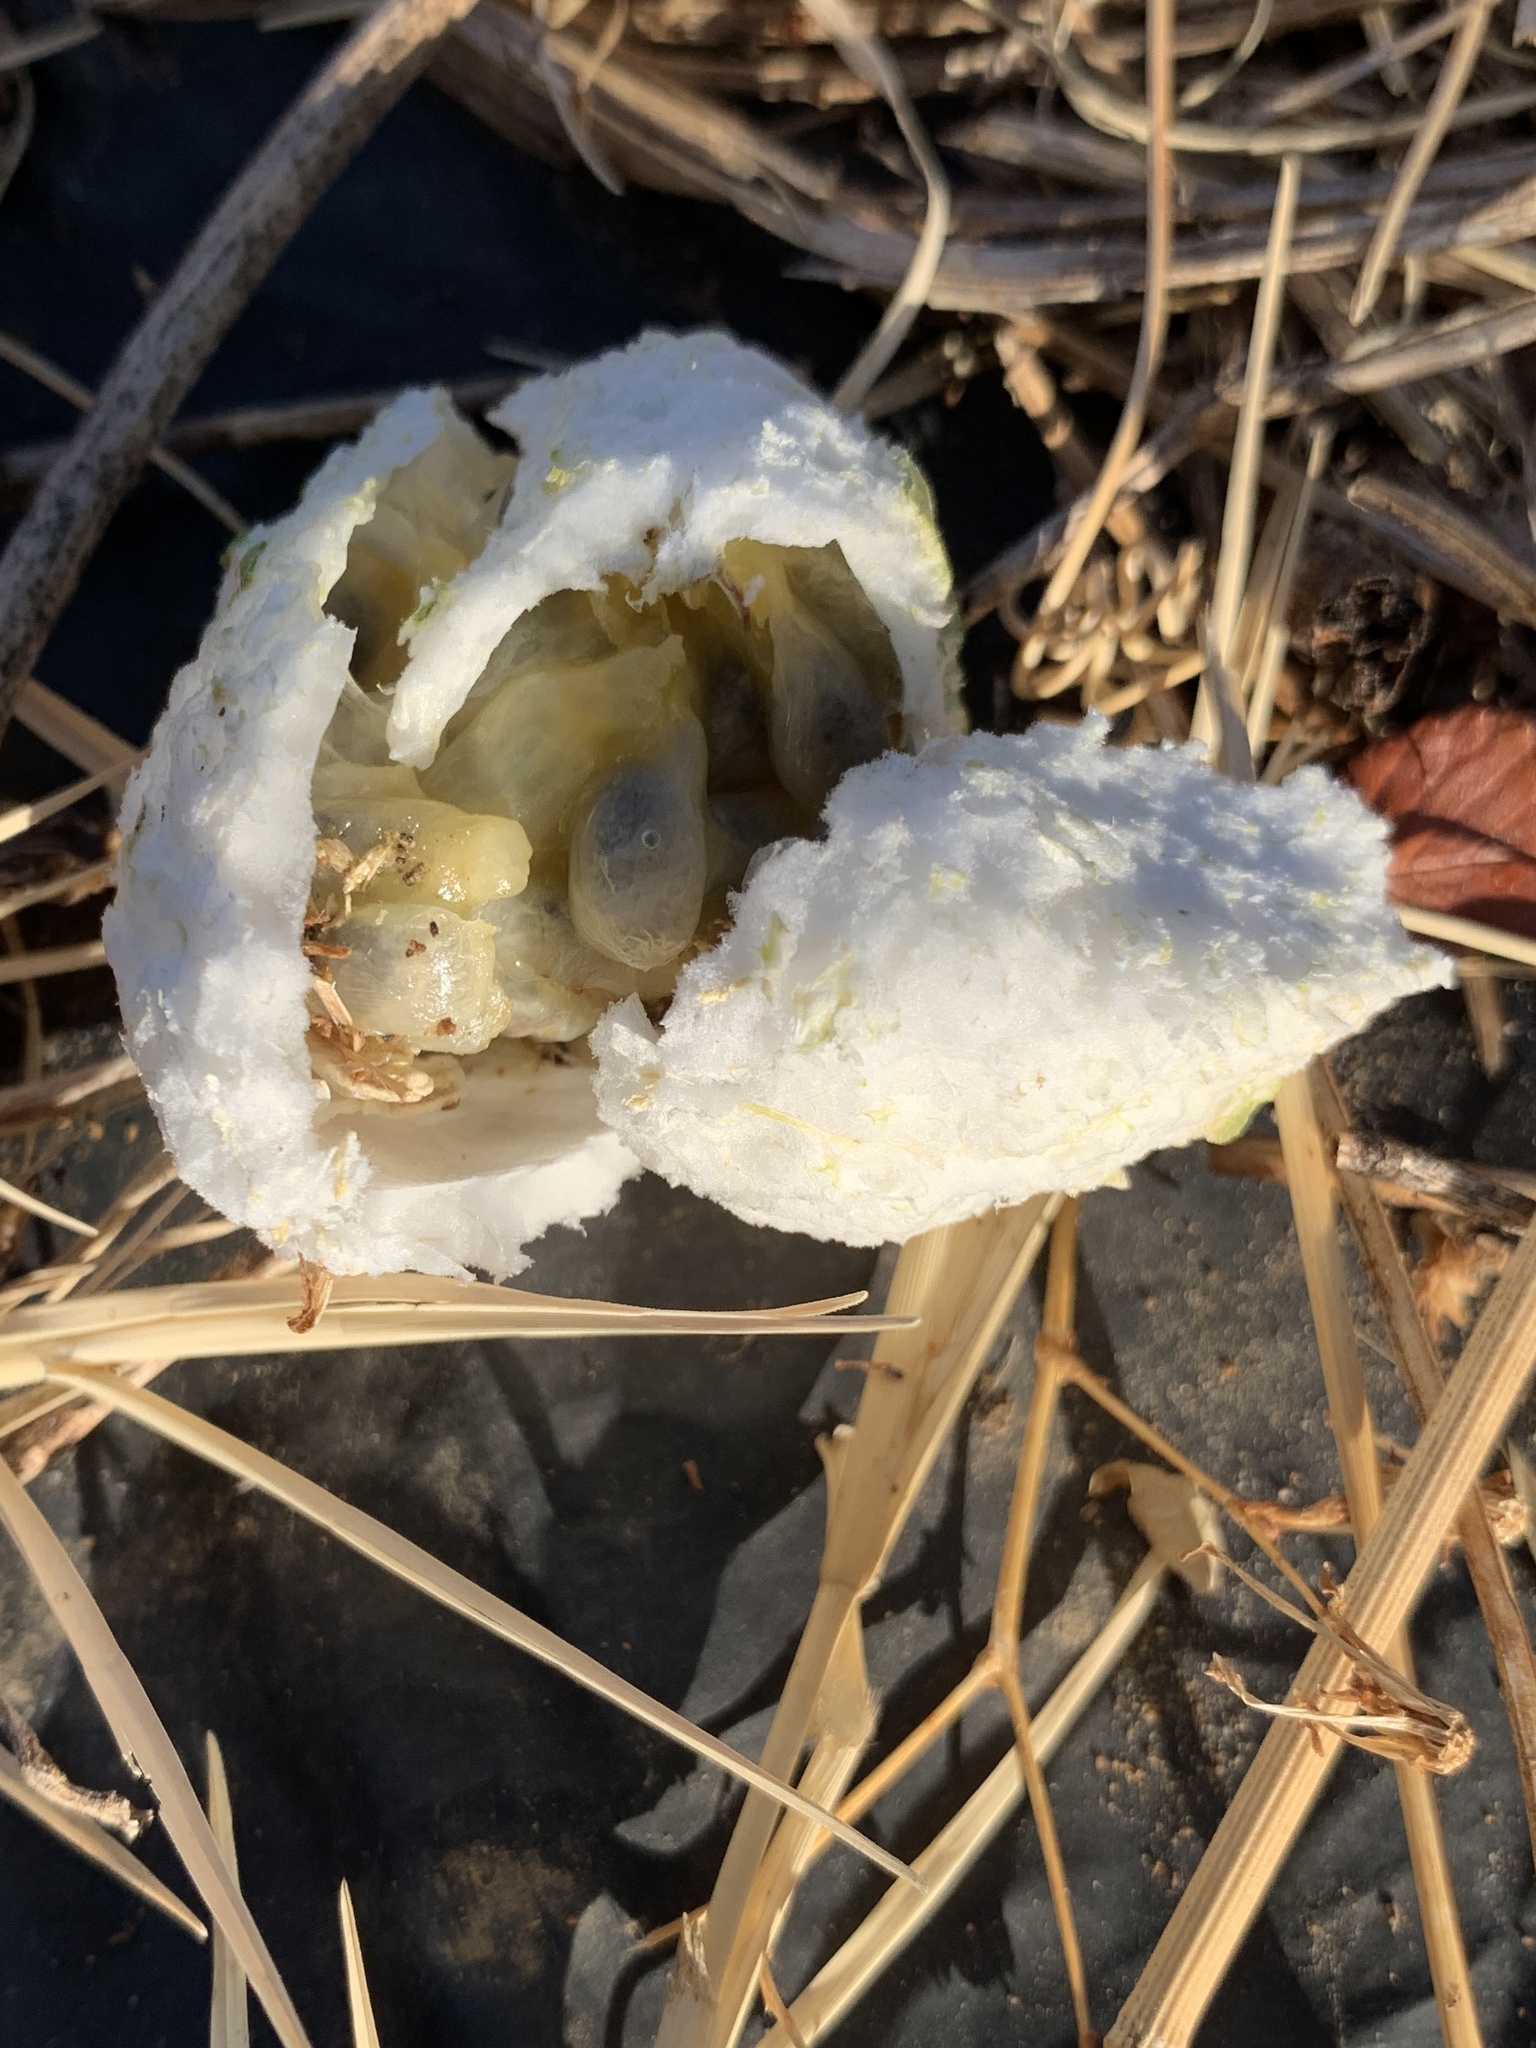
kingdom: Plantae
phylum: Tracheophyta
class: Magnoliopsida
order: Malpighiales
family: Passifloraceae
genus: Passiflora
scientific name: Passiflora incarnata
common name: Apricot-vine
